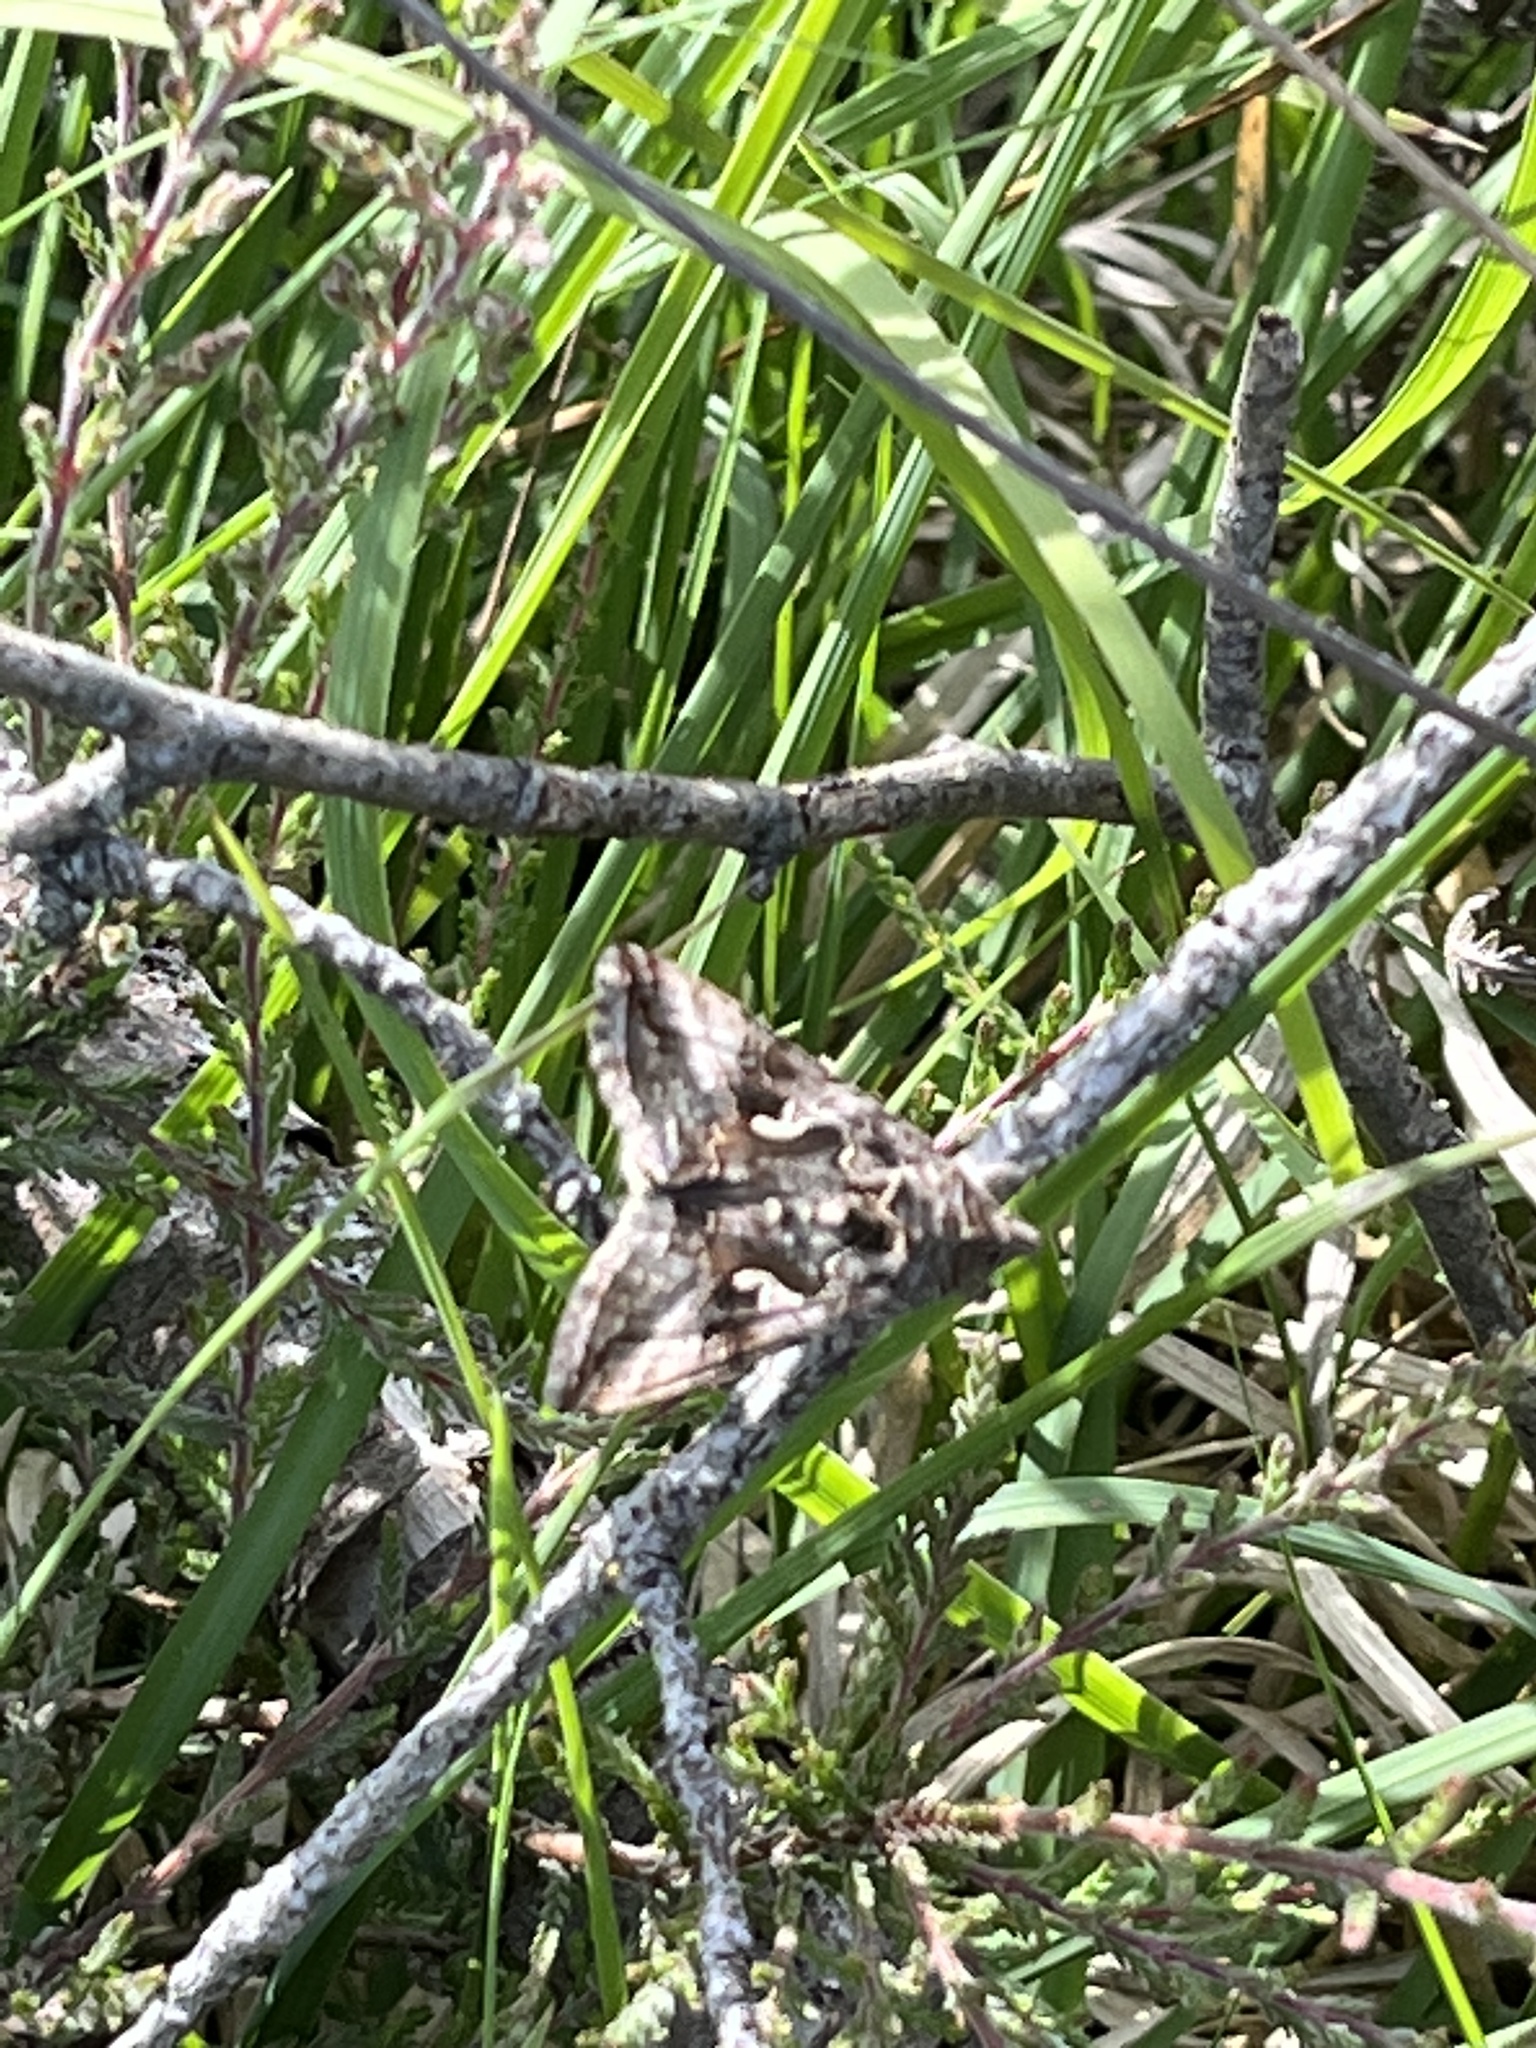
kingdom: Animalia
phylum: Arthropoda
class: Insecta
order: Lepidoptera
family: Noctuidae
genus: Autographa
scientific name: Autographa gamma
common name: Silver y
